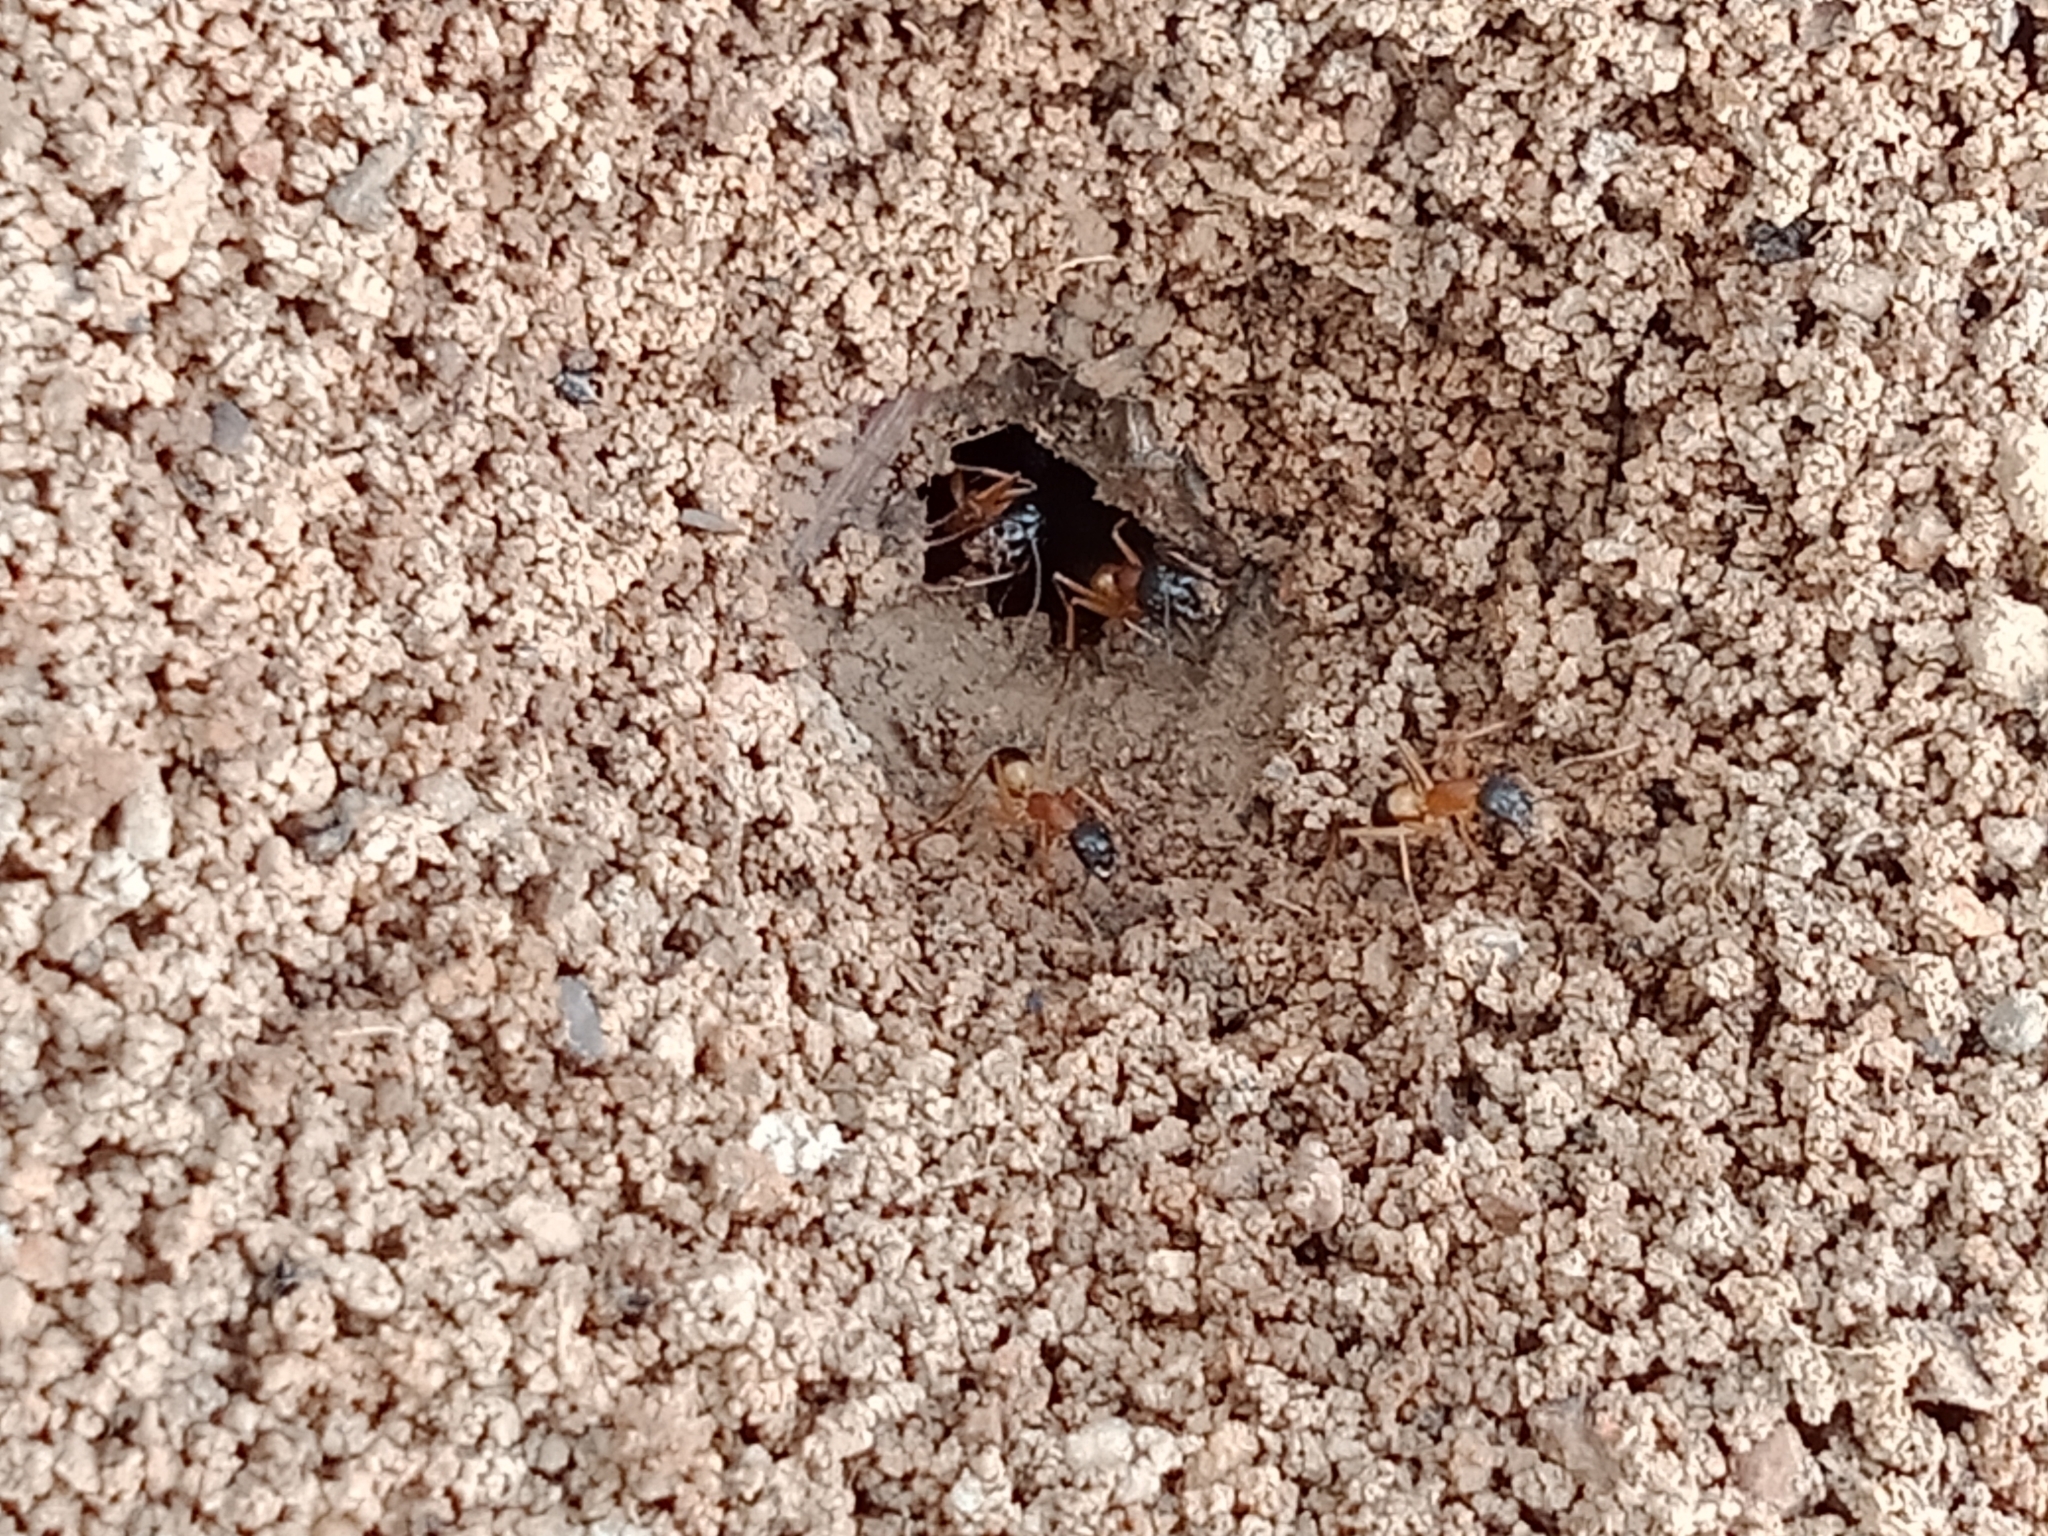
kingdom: Animalia
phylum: Arthropoda
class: Insecta
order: Hymenoptera
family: Formicidae
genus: Camponotus
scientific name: Camponotus consobrinus
